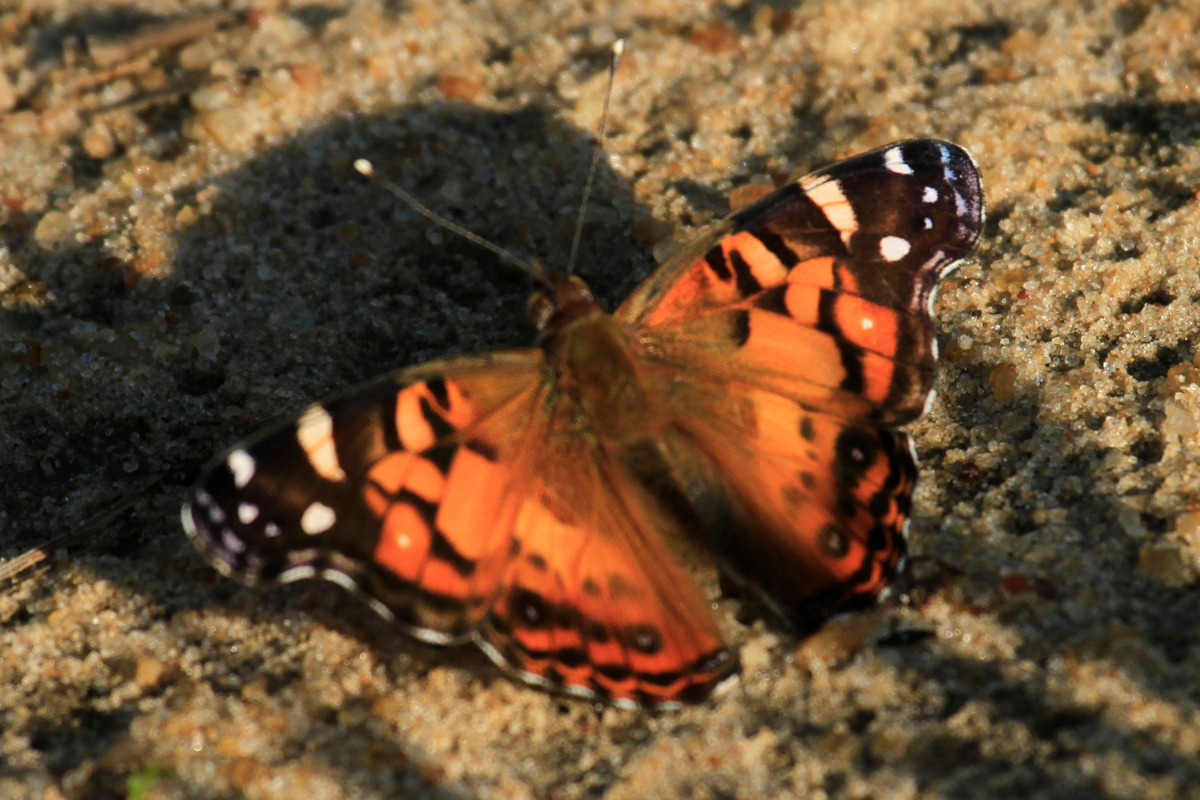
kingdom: Animalia
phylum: Arthropoda
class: Insecta
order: Lepidoptera
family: Nymphalidae
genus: Vanessa
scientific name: Vanessa virginiensis
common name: American lady
